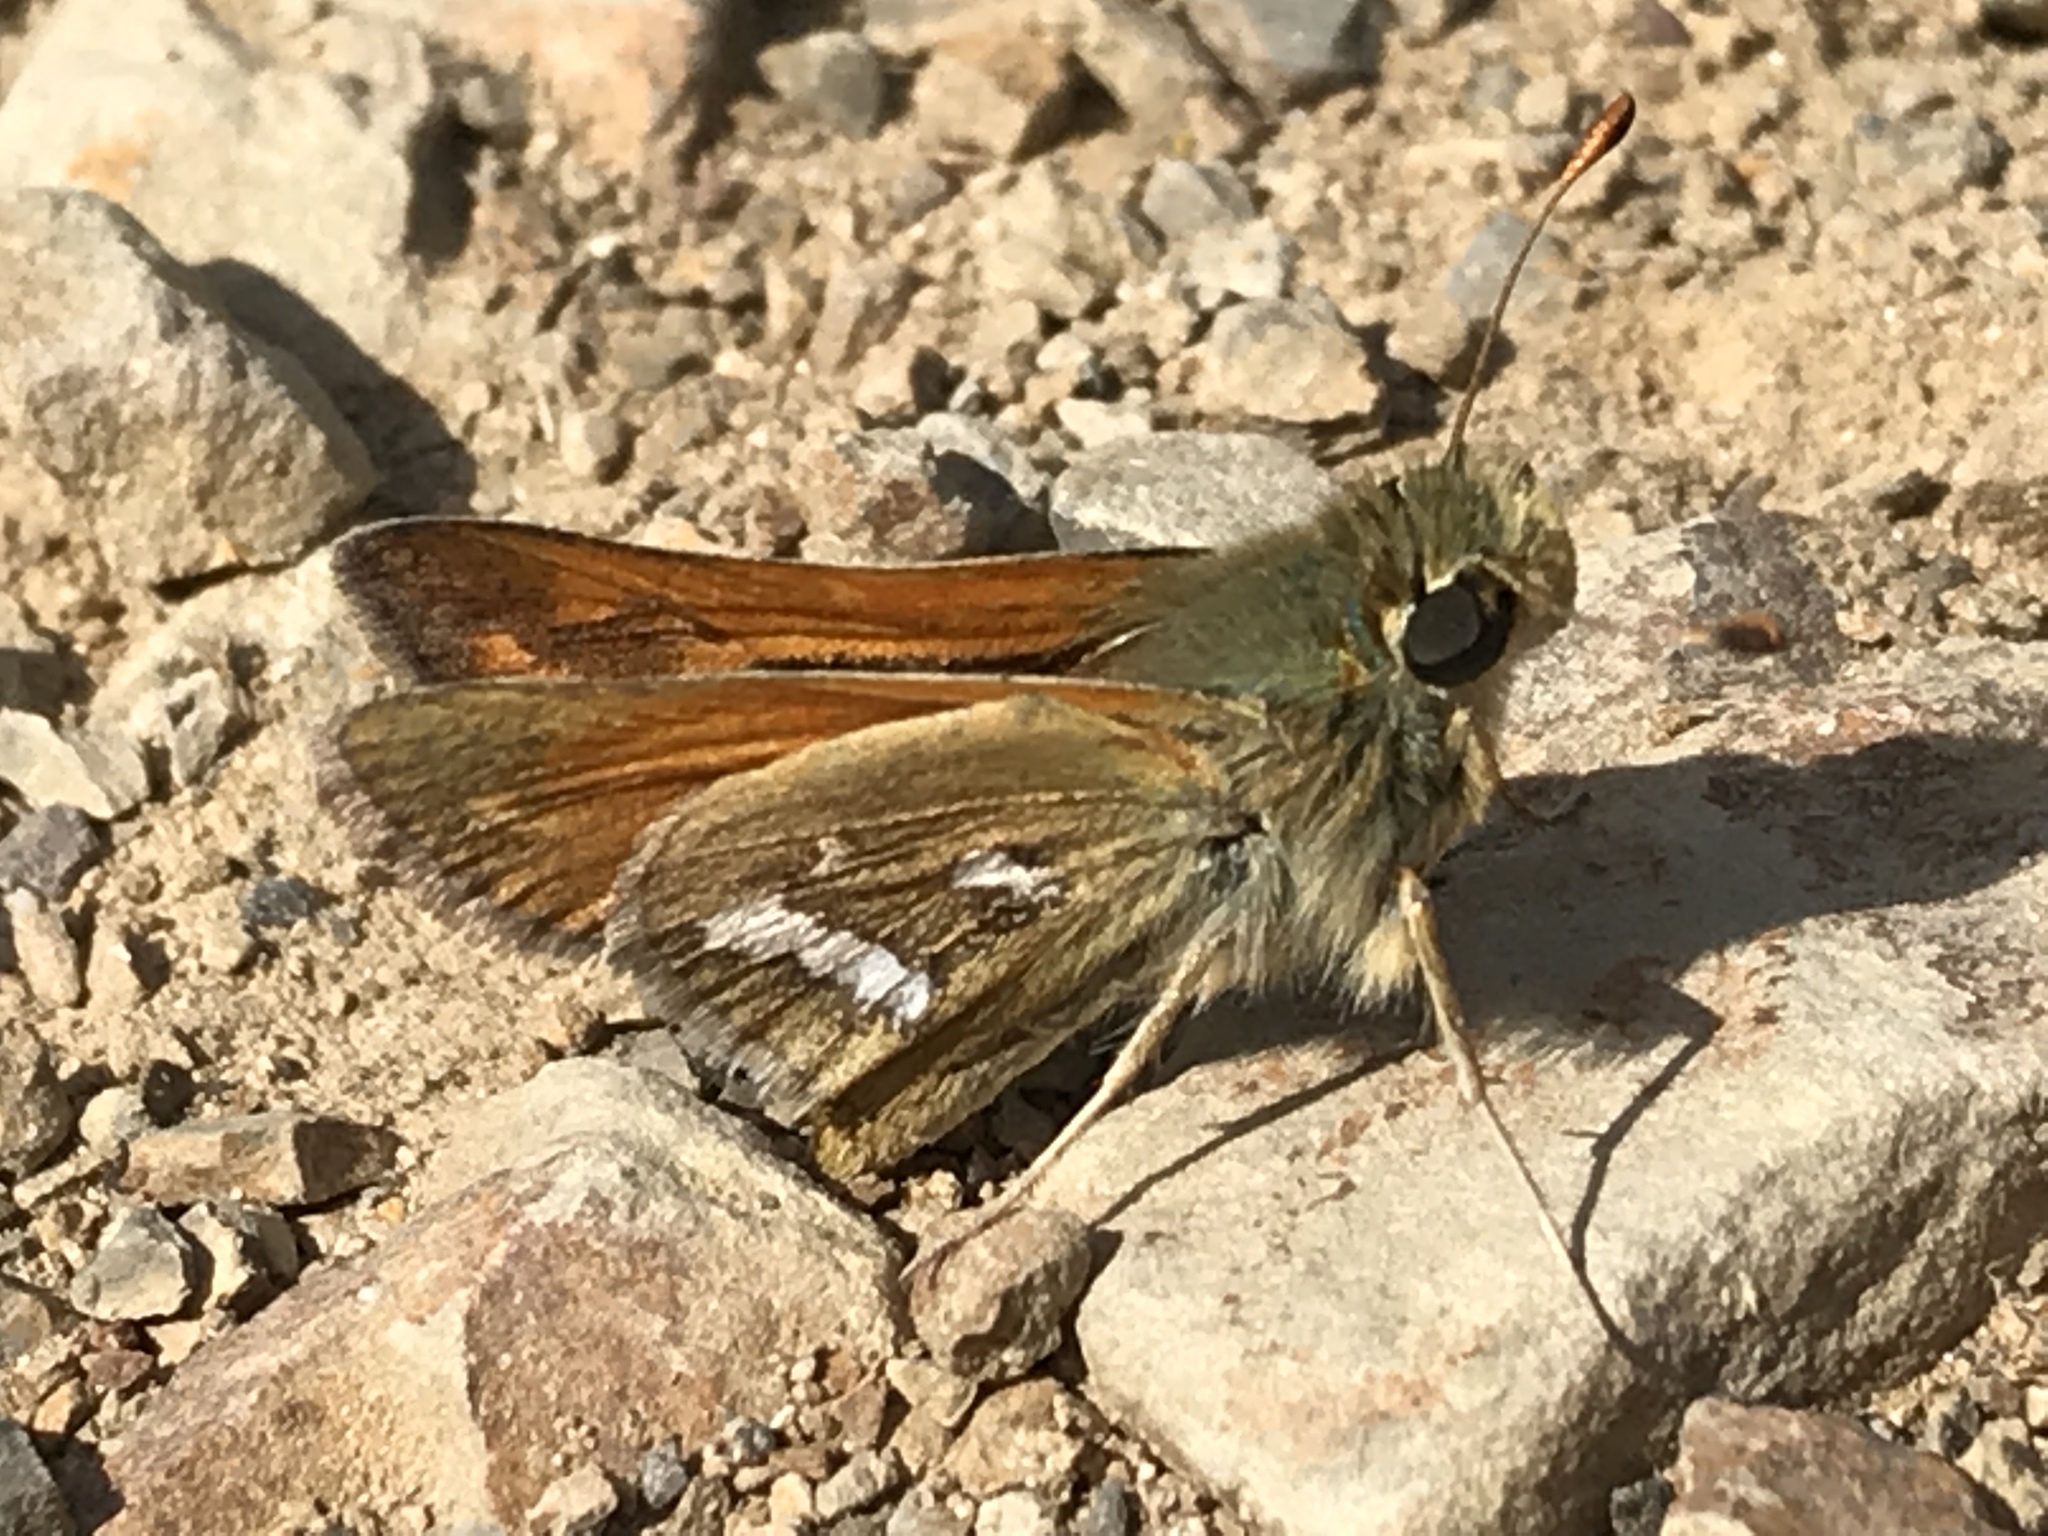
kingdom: Animalia
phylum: Arthropoda
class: Insecta
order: Lepidoptera
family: Hesperiidae
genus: Hesperia
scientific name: Hesperia columbia
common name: Columbian skipper
